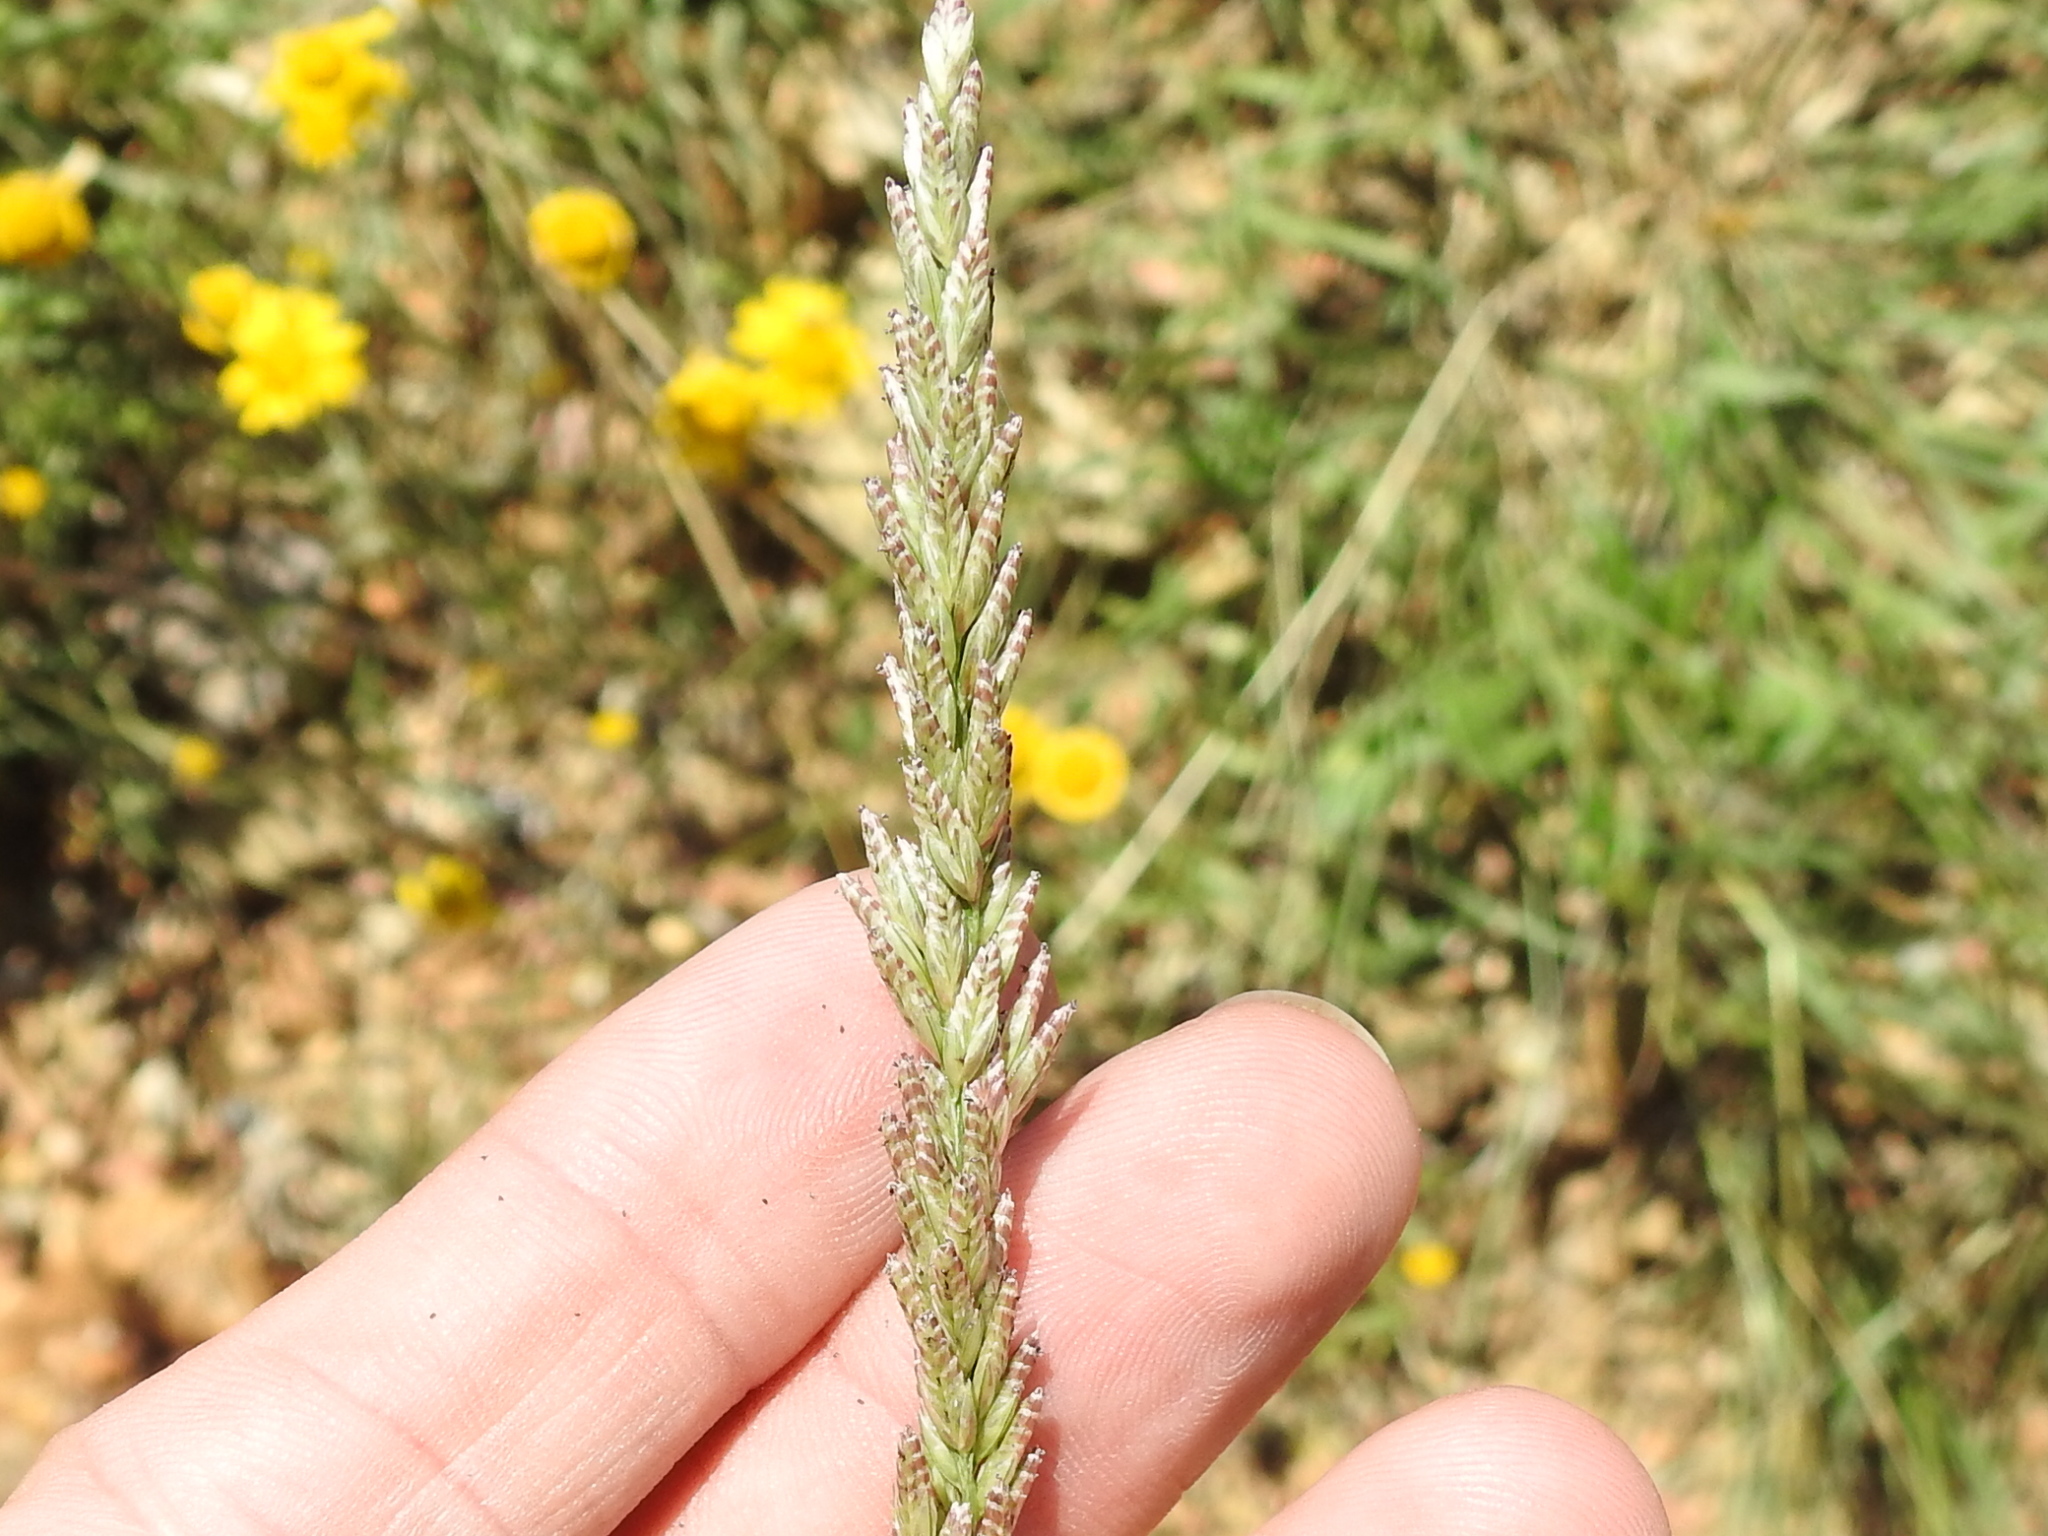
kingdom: Plantae
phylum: Tracheophyta
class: Liliopsida
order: Poales
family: Poaceae
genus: Tridens
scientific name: Tridens albescens
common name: White tridens
